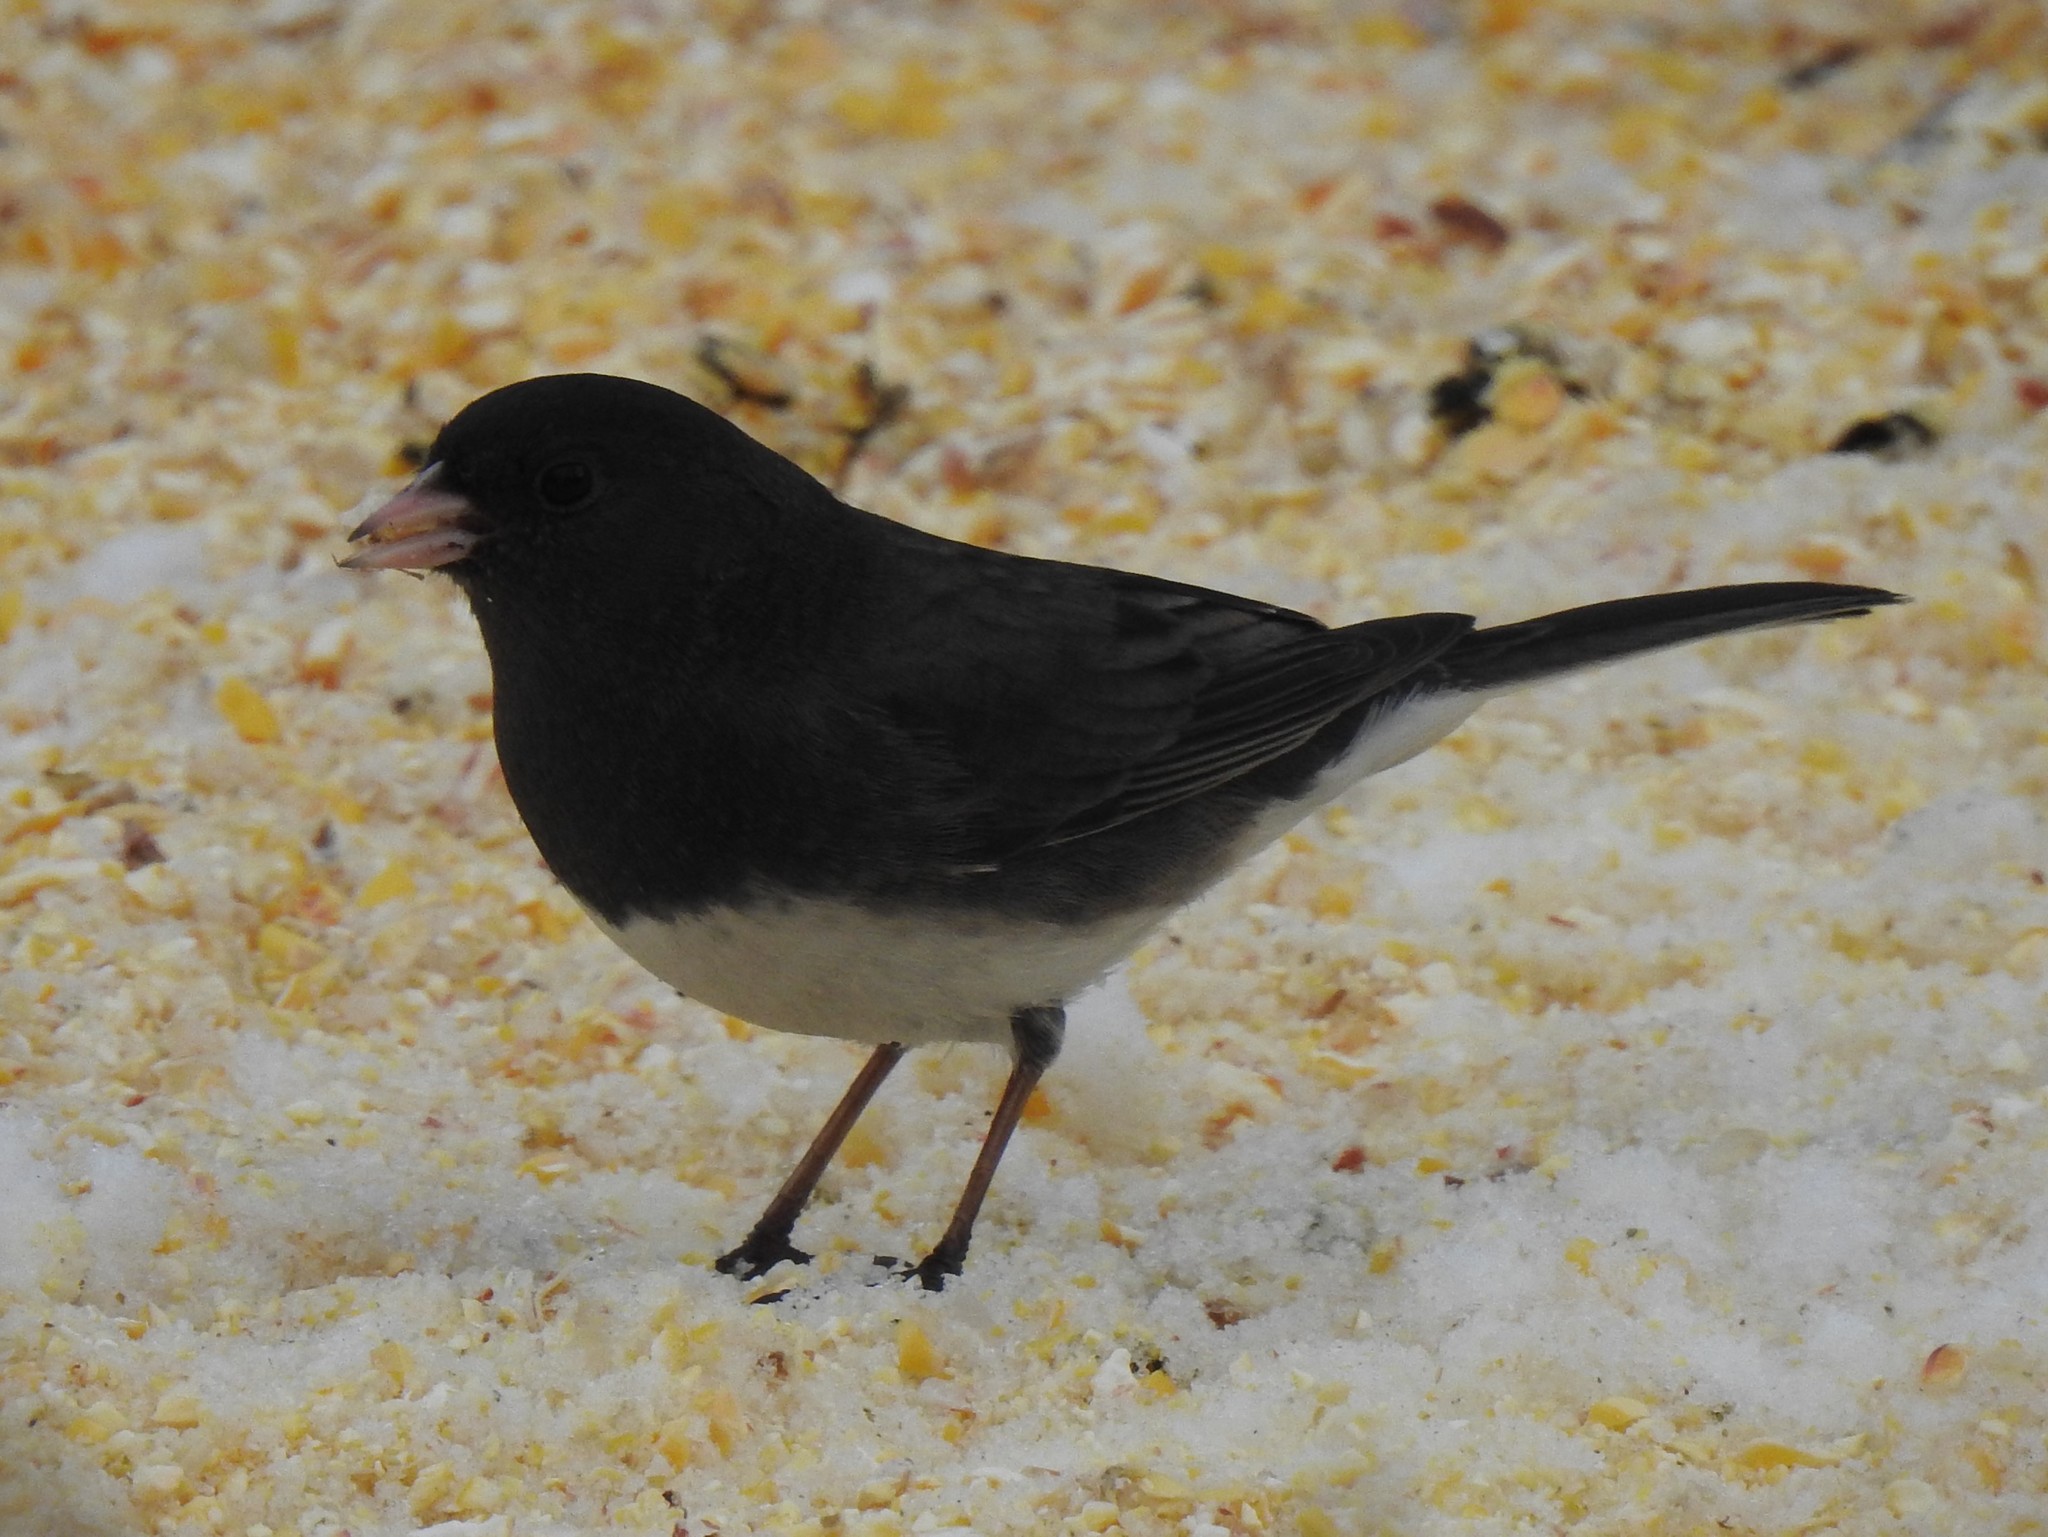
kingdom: Animalia
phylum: Chordata
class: Aves
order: Passeriformes
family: Passerellidae
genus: Junco
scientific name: Junco hyemalis
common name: Dark-eyed junco
